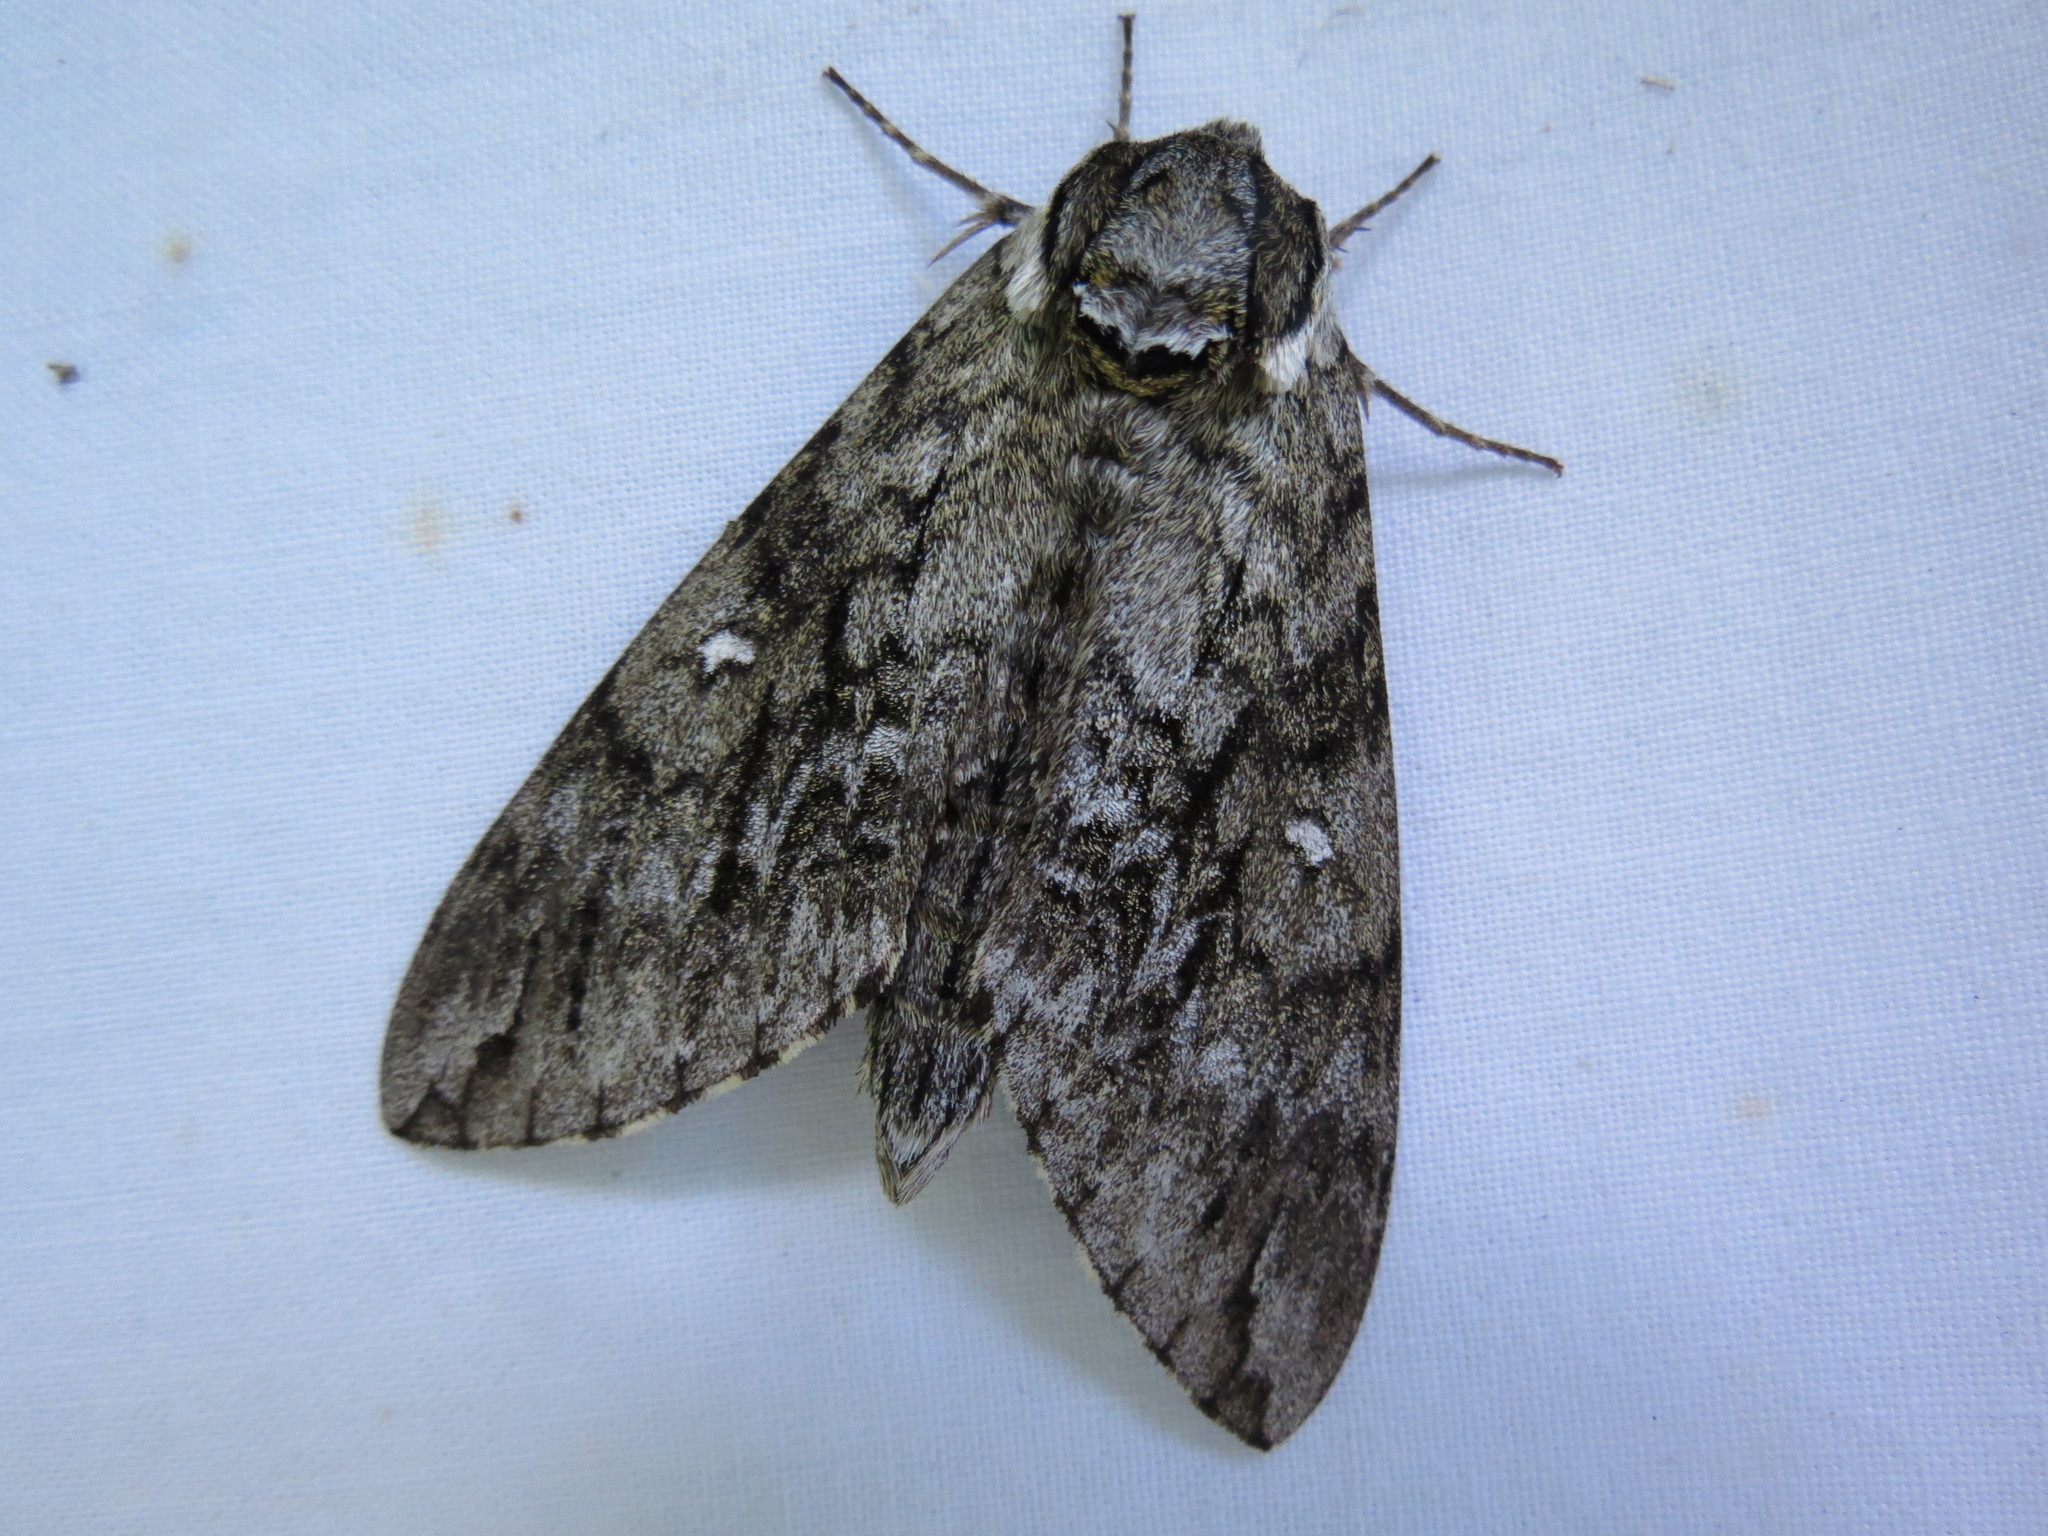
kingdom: Animalia
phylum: Arthropoda
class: Insecta
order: Lepidoptera
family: Sphingidae
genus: Ceratomia
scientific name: Ceratomia undulosa
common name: Waved sphinx
